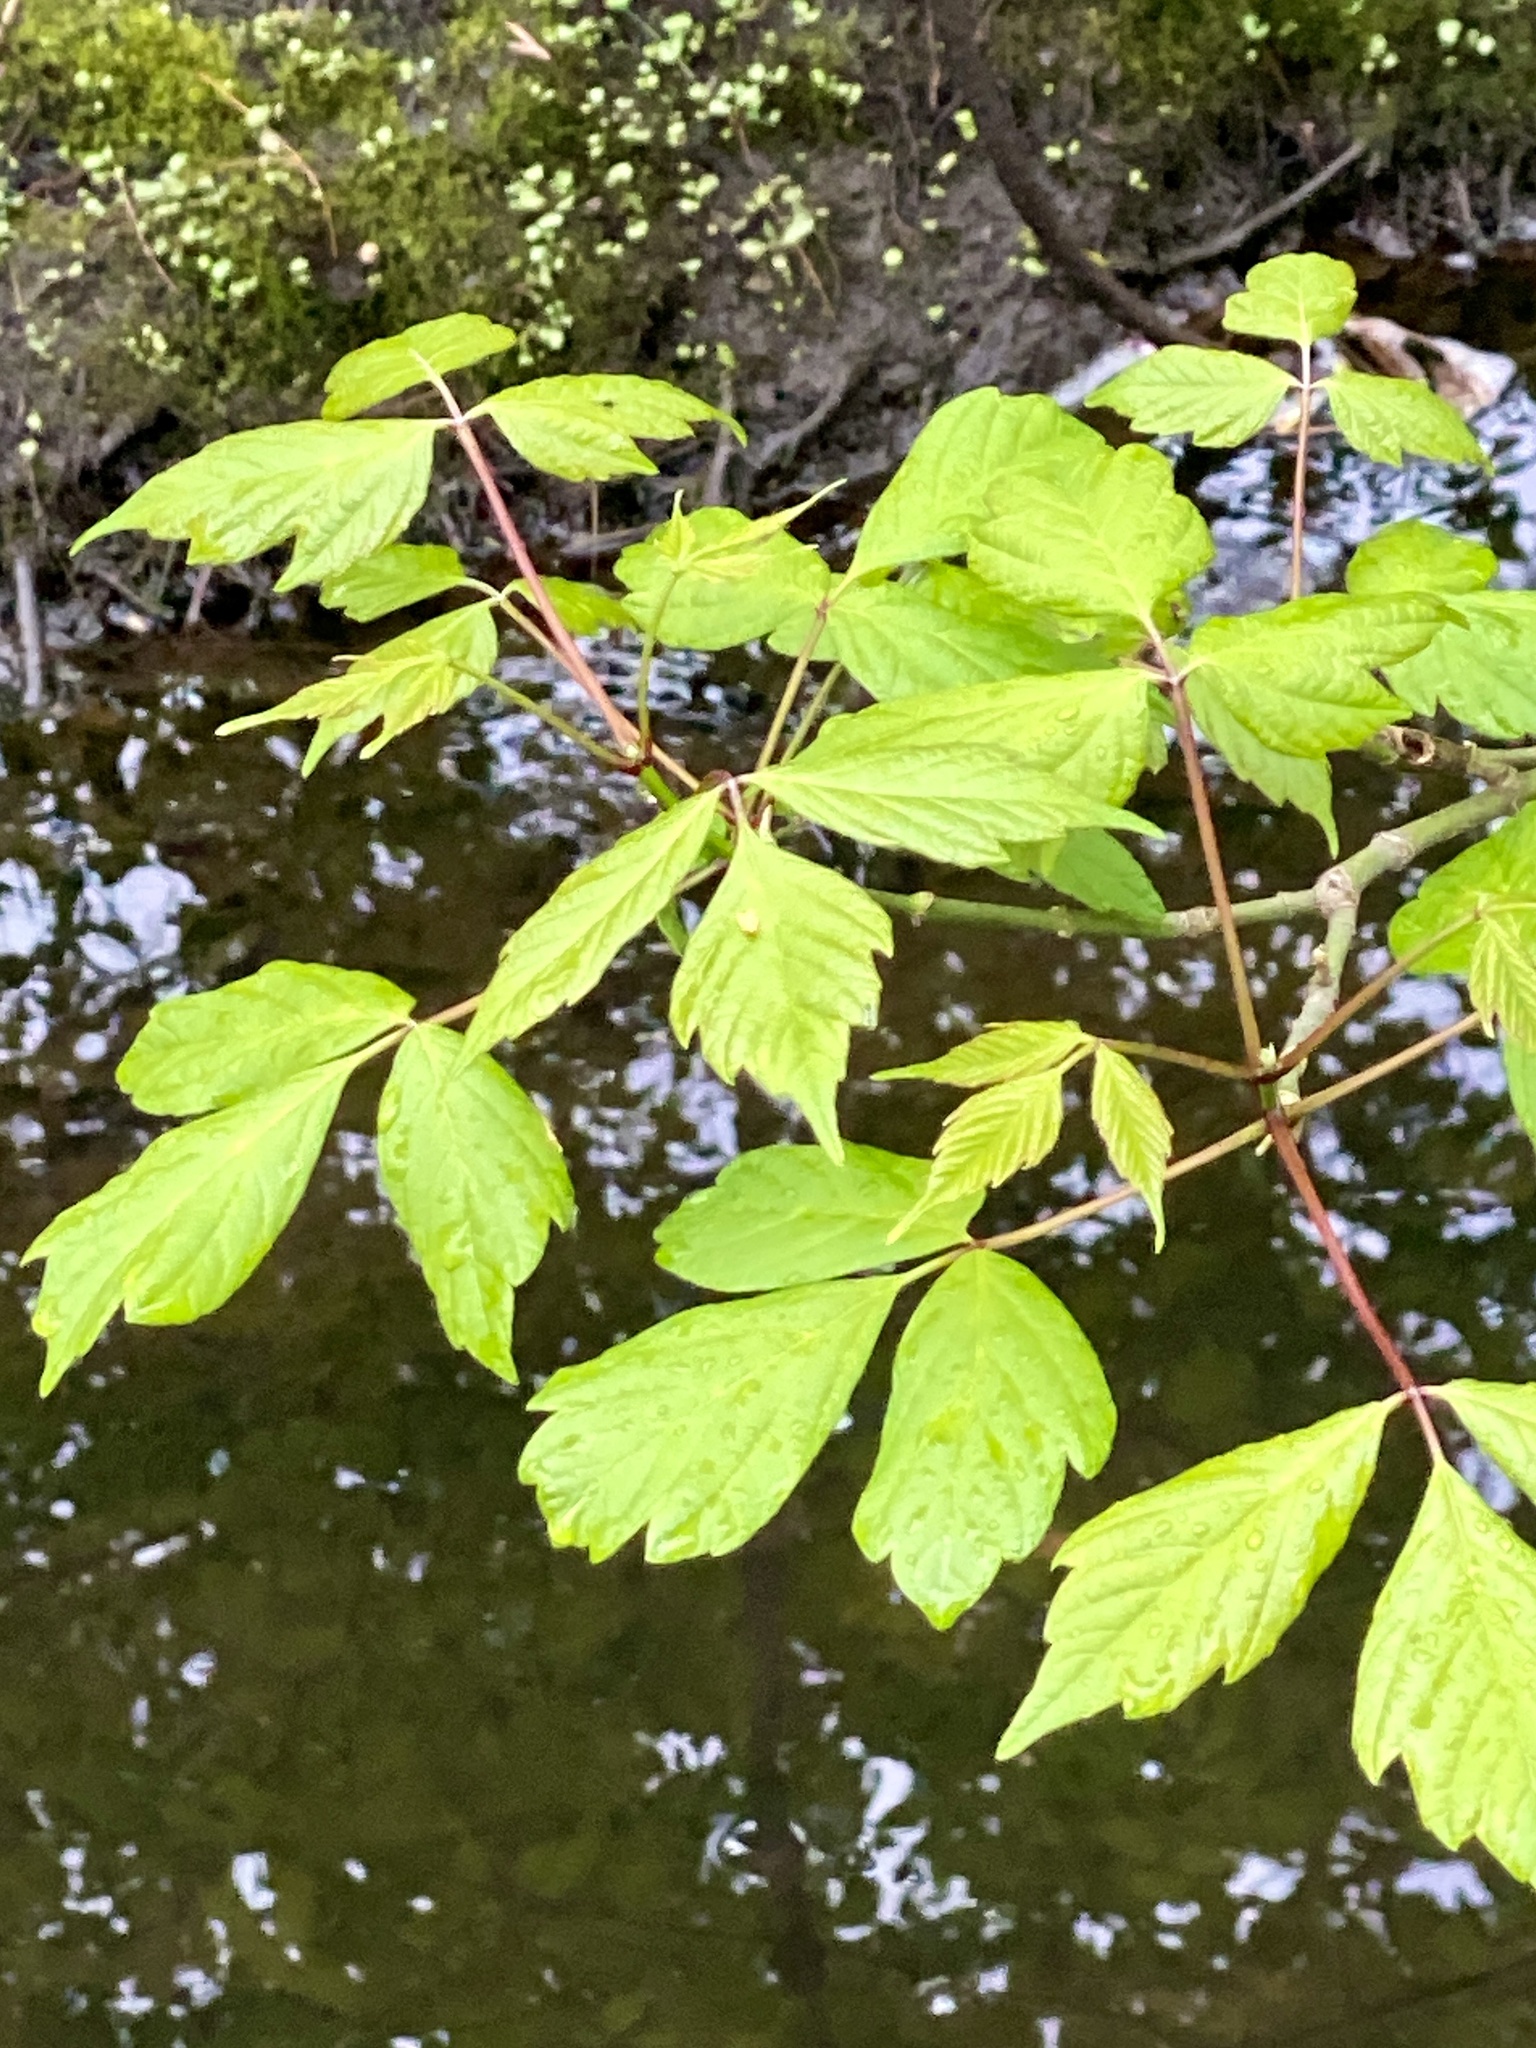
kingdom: Plantae
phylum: Tracheophyta
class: Magnoliopsida
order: Sapindales
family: Sapindaceae
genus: Acer
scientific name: Acer negundo
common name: Ashleaf maple
